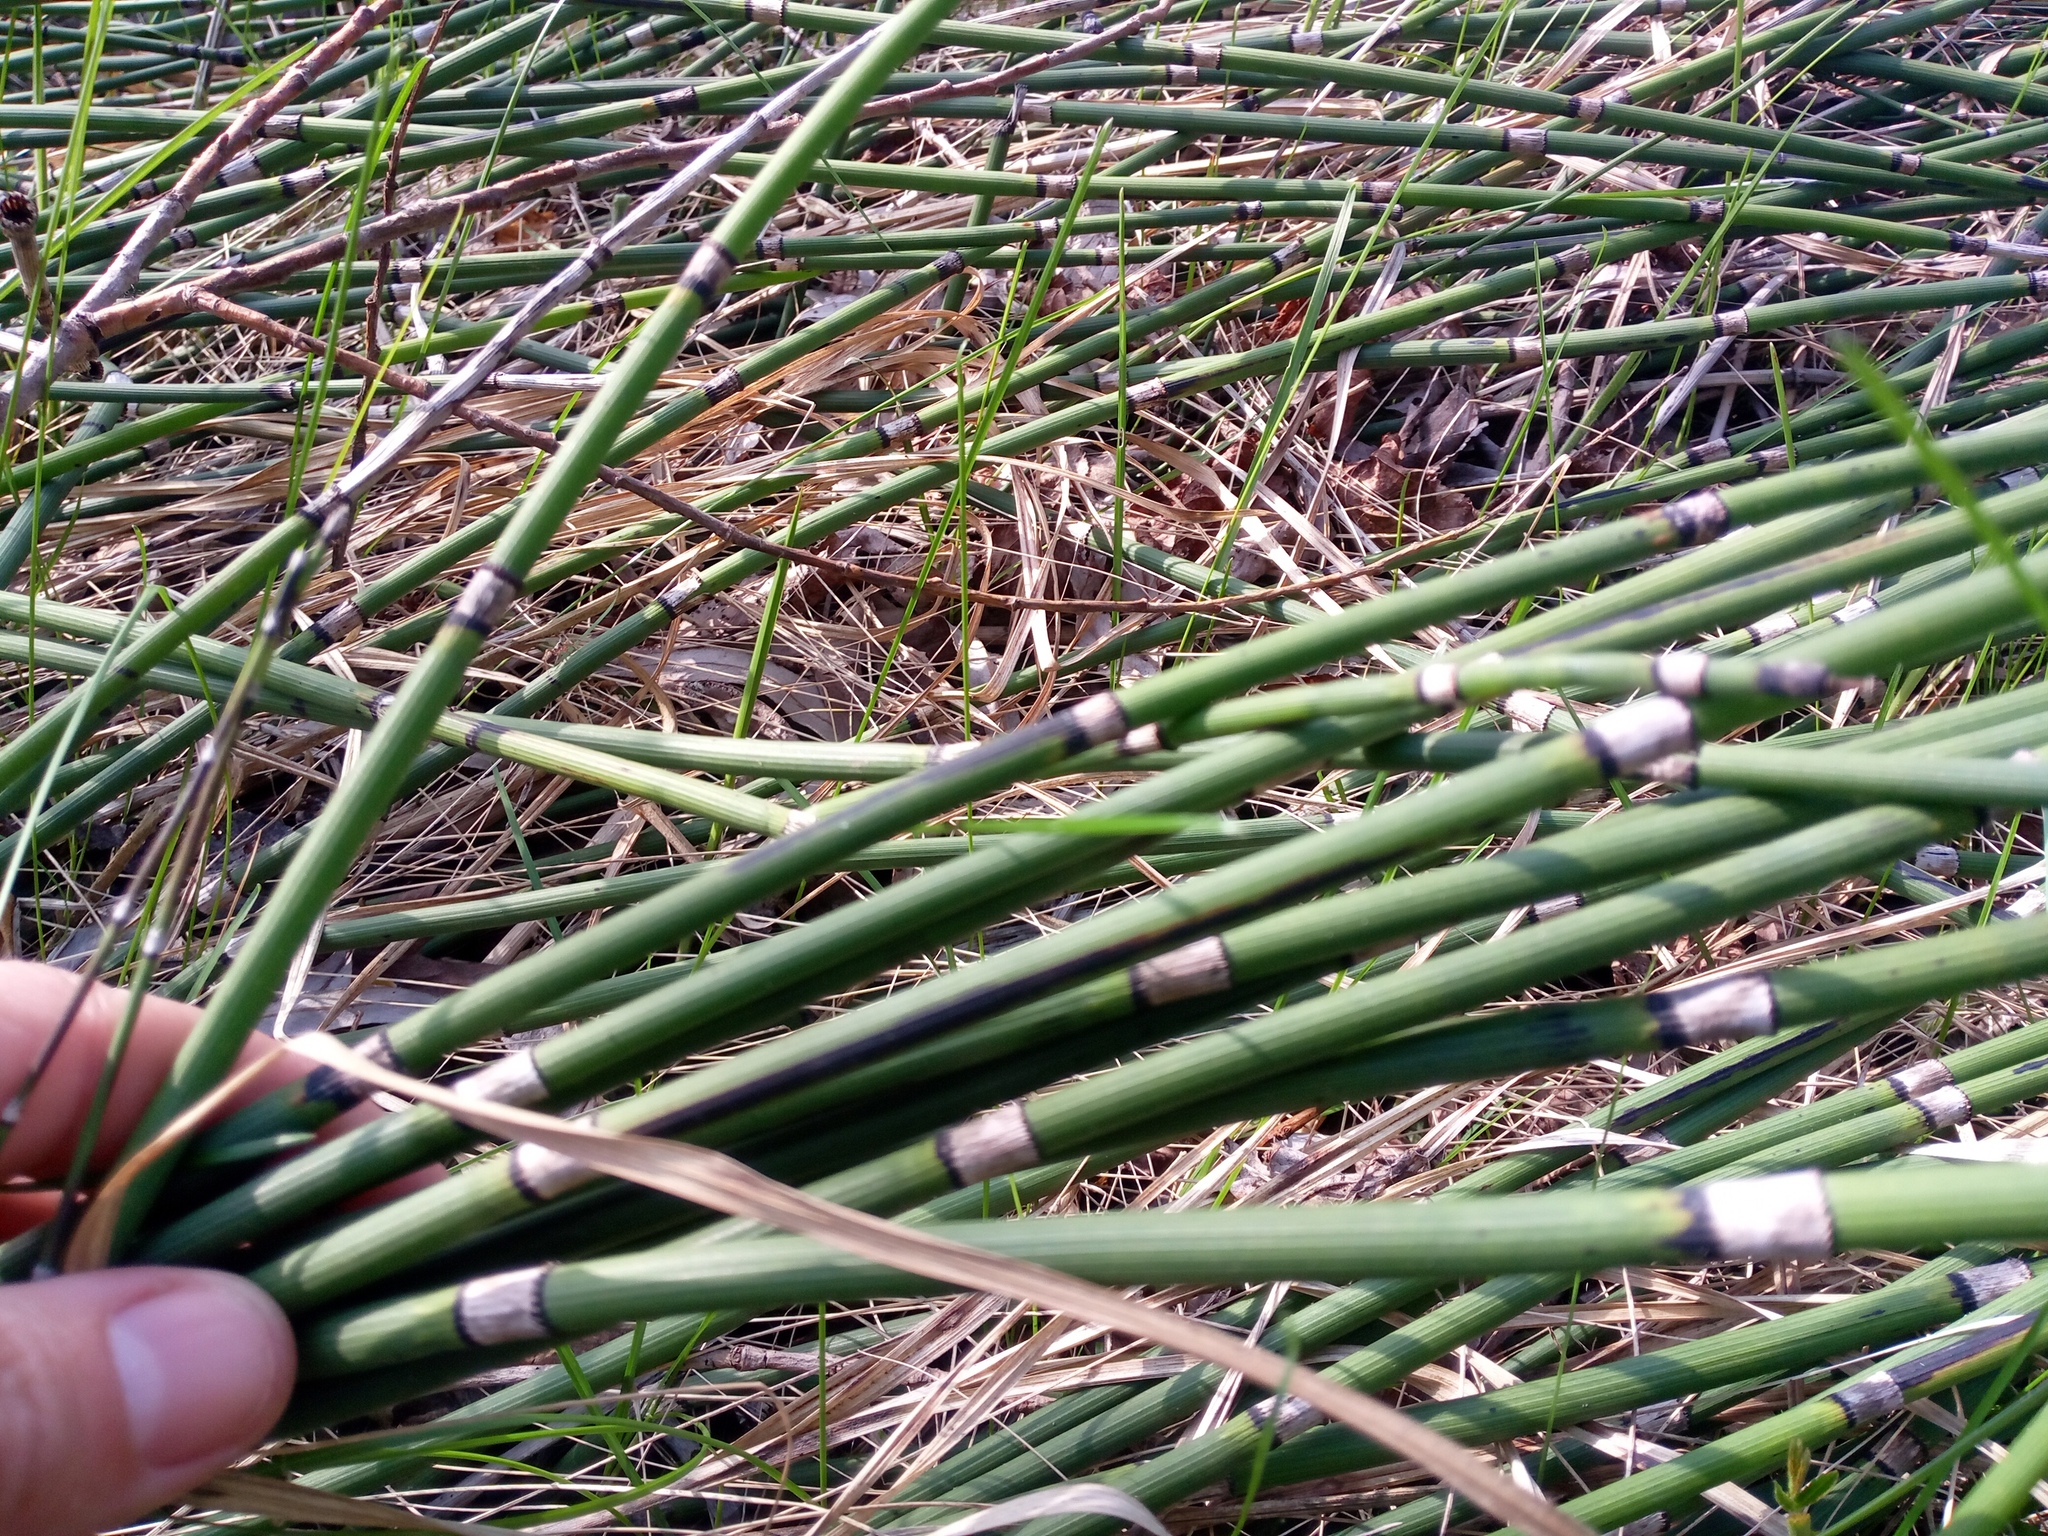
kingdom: Plantae
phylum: Tracheophyta
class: Polypodiopsida
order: Equisetales
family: Equisetaceae
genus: Equisetum
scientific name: Equisetum hyemale
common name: Rough horsetail
